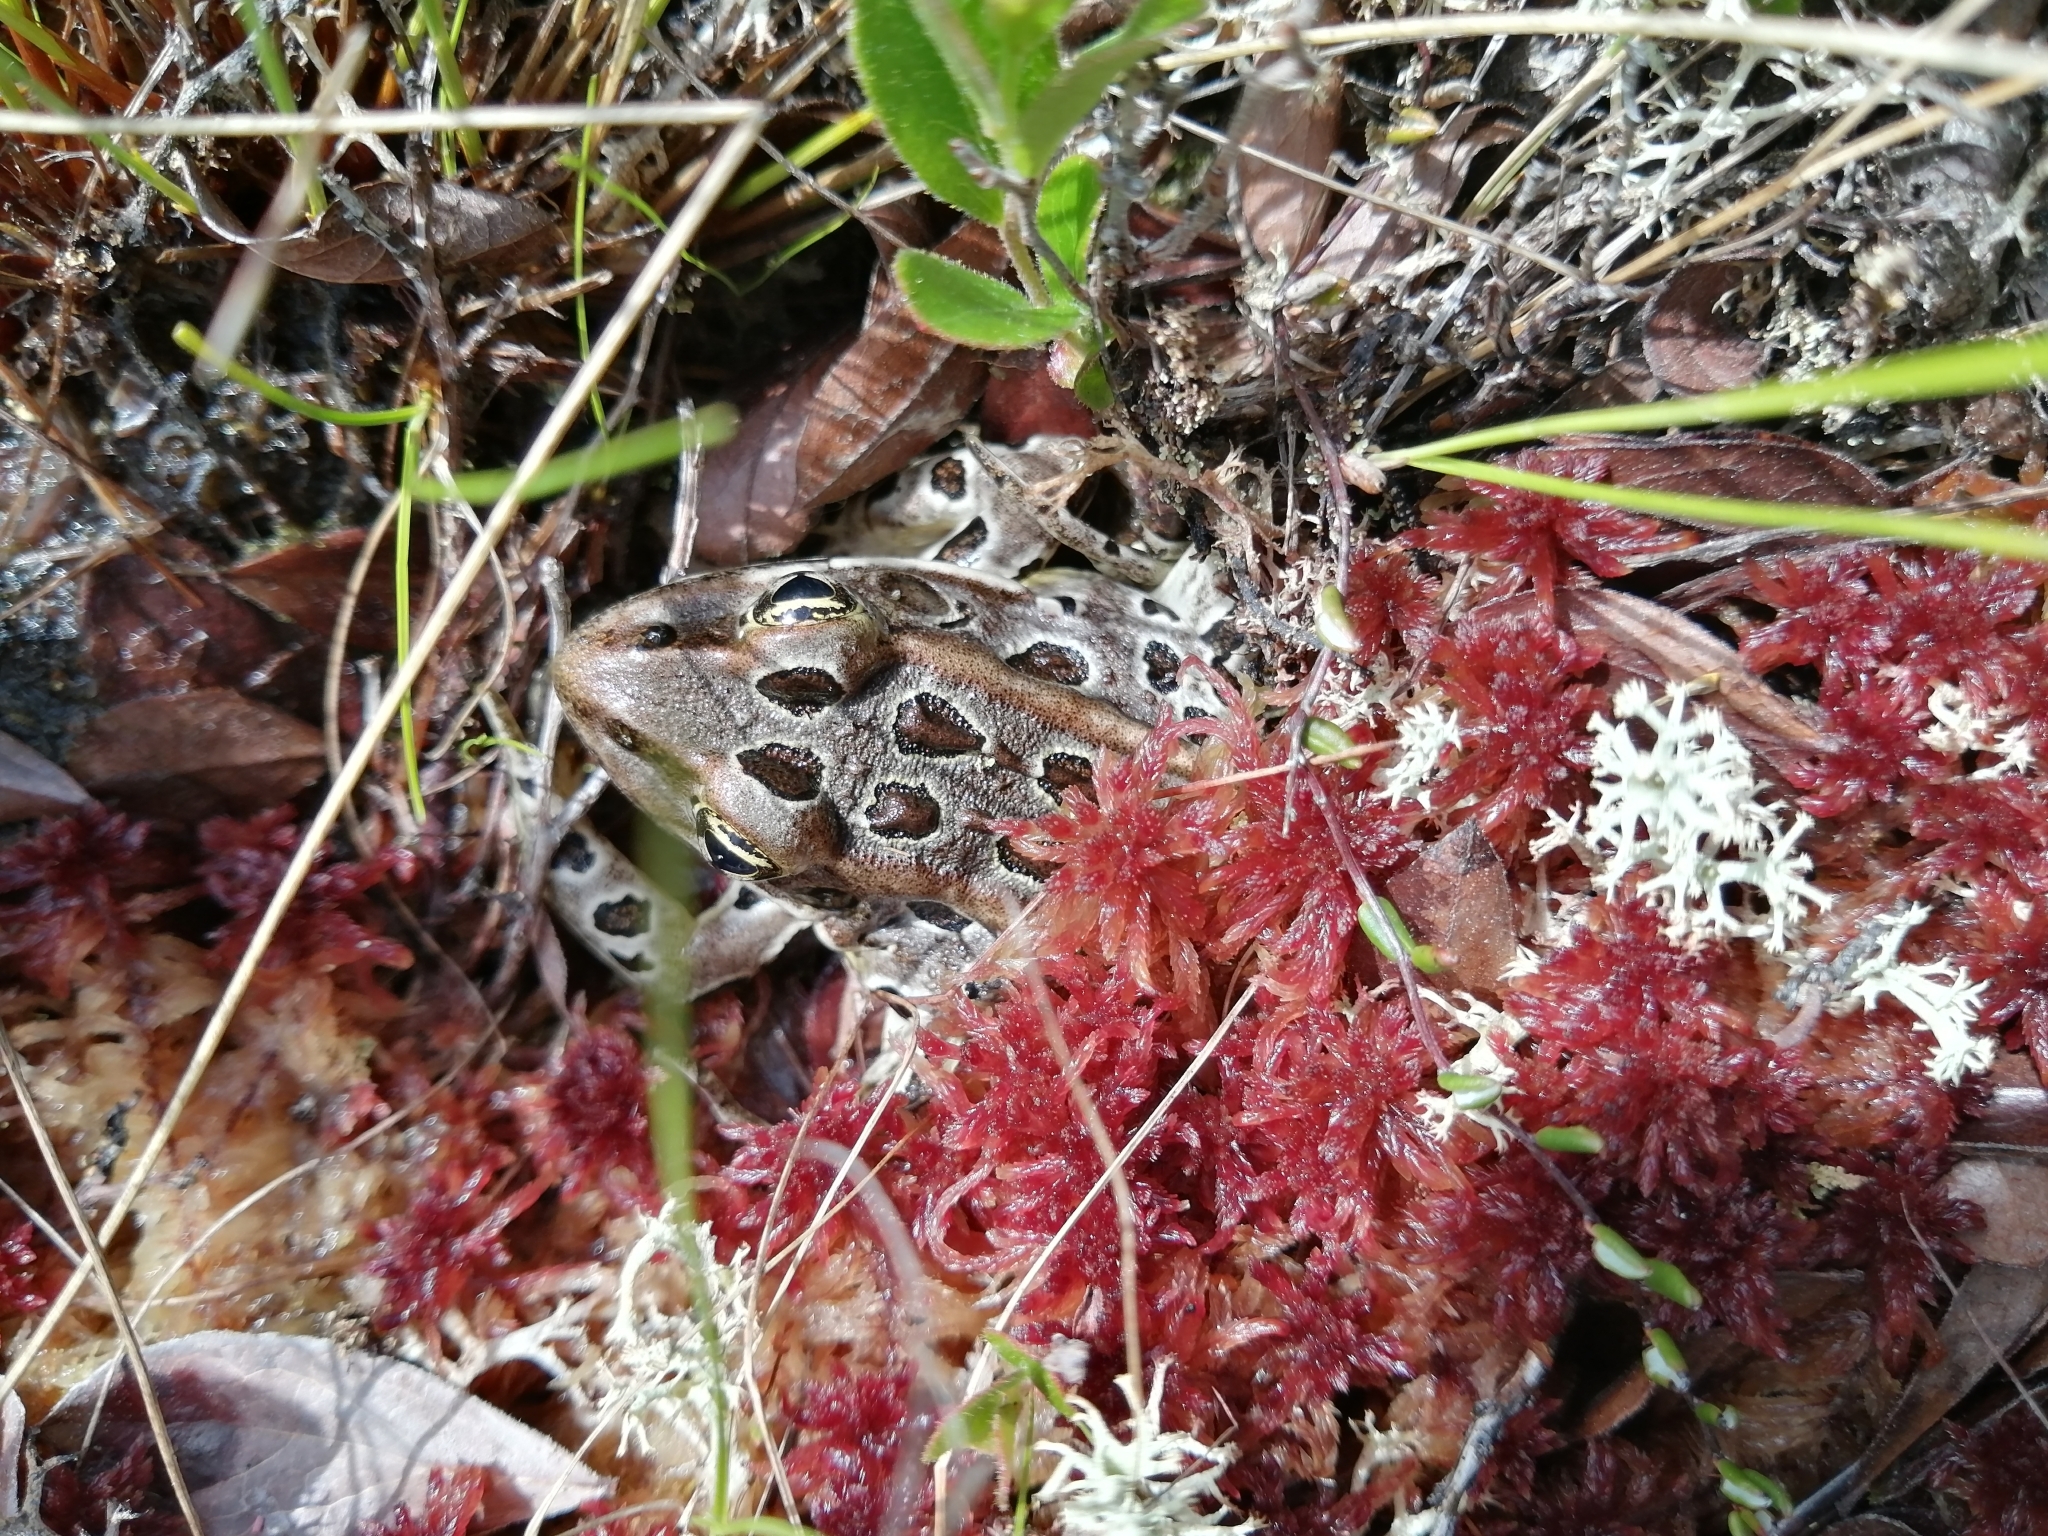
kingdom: Animalia
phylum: Chordata
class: Amphibia
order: Anura
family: Ranidae
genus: Lithobates
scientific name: Lithobates pipiens
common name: Northern leopard frog
